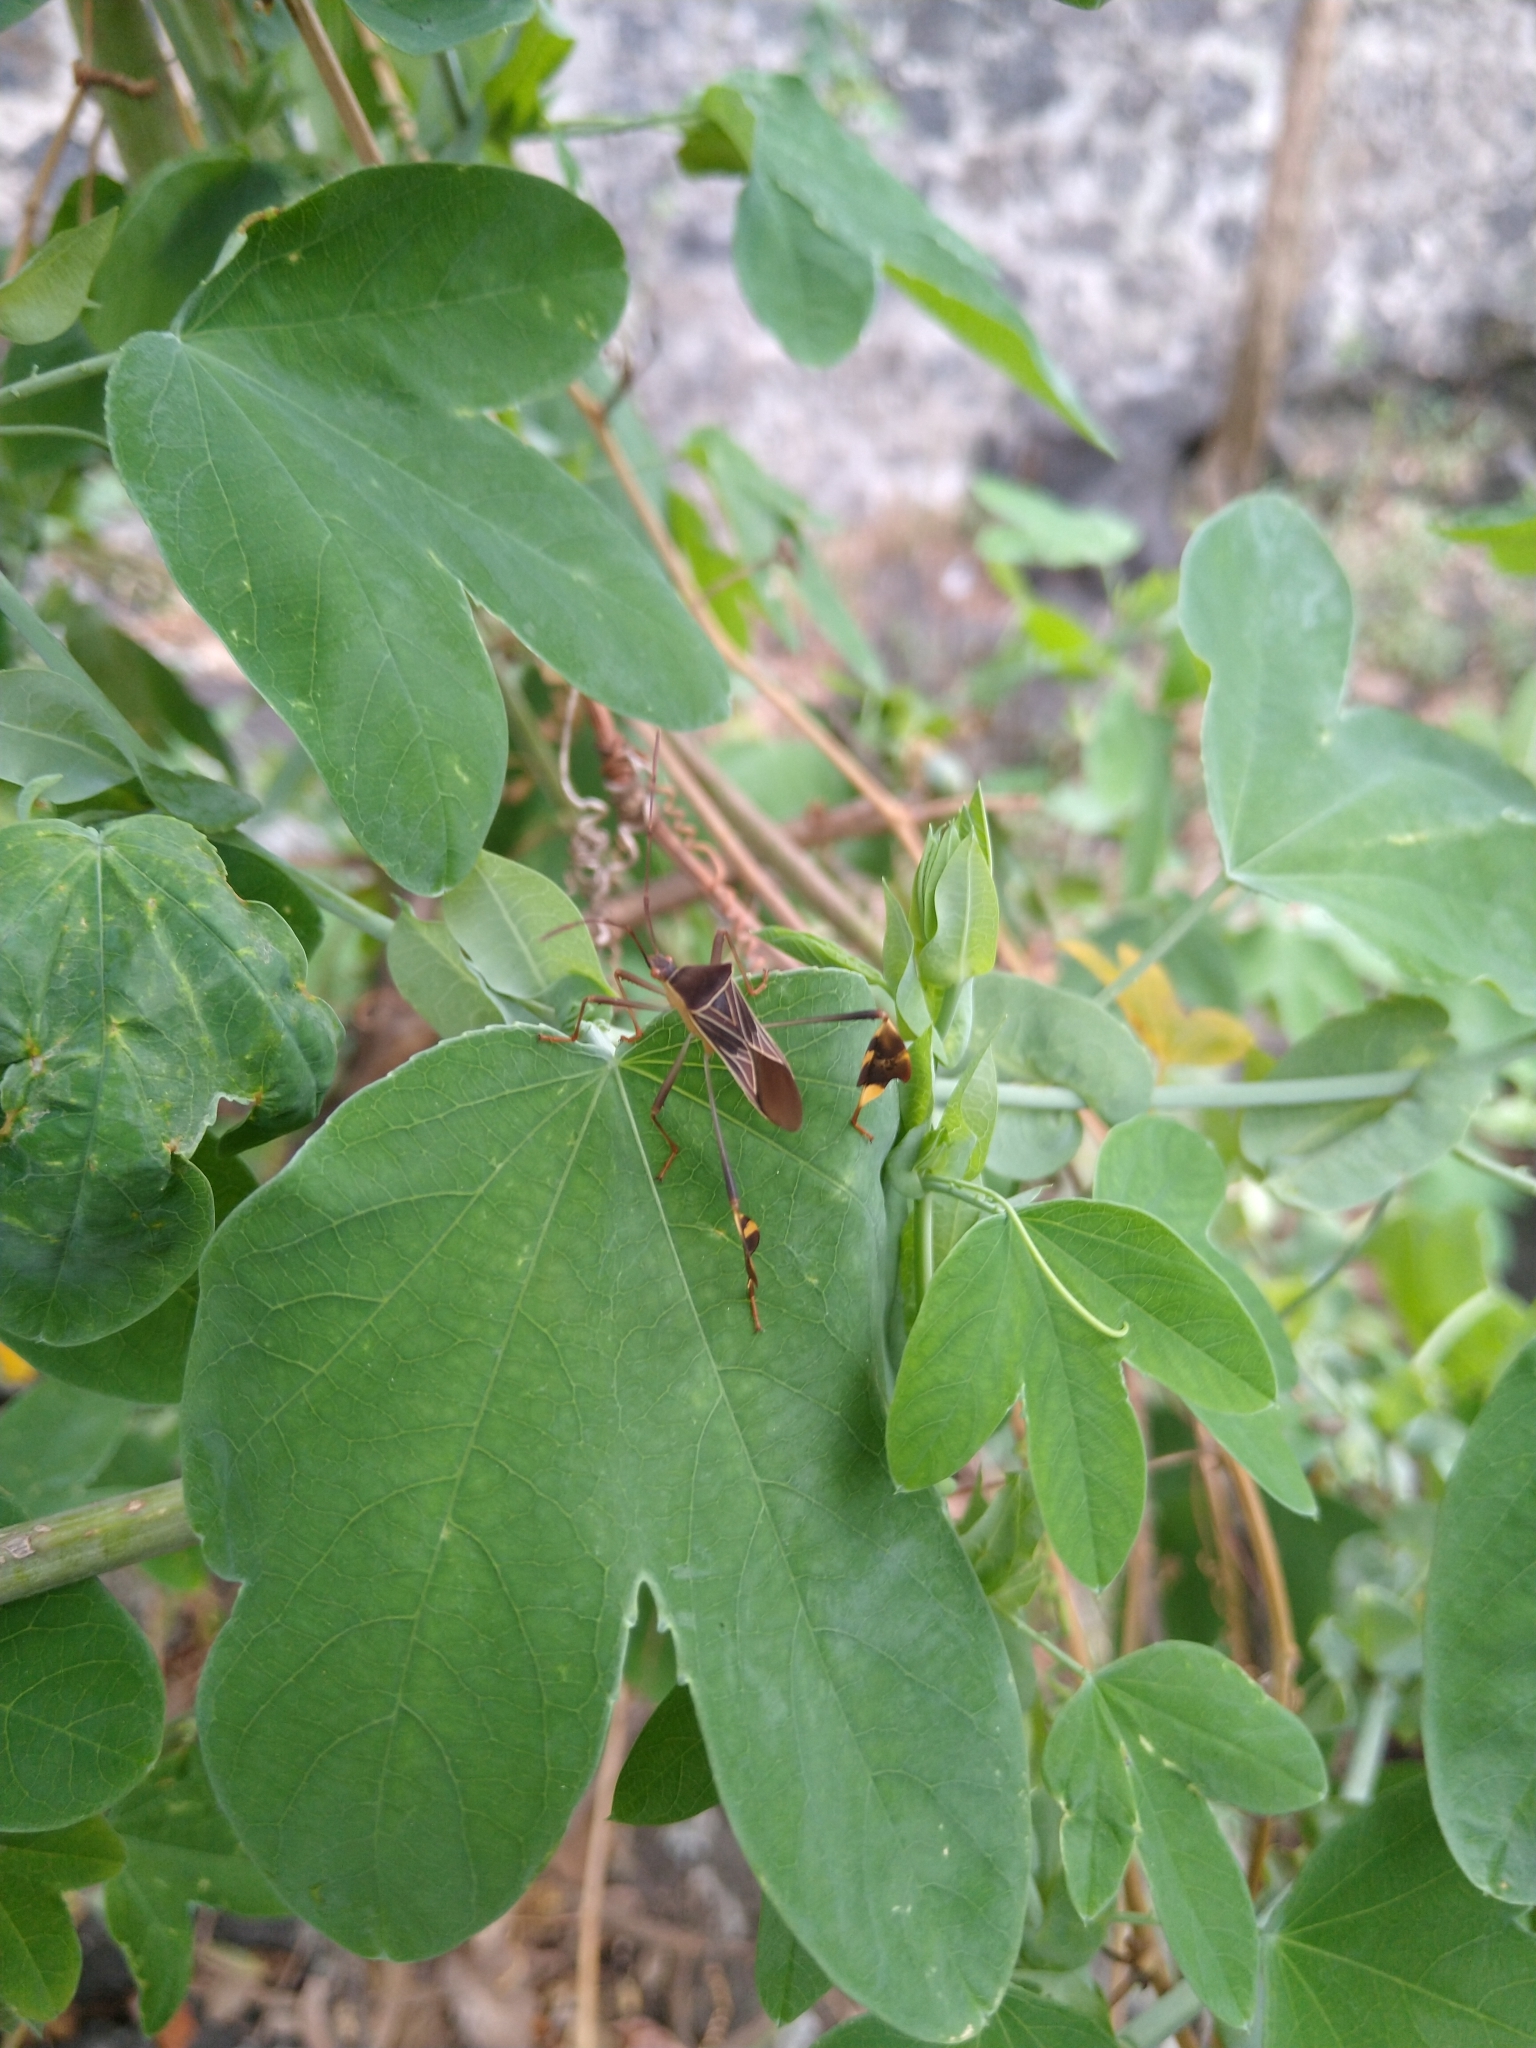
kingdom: Animalia
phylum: Arthropoda
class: Insecta
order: Hemiptera
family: Coreidae
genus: Bitta
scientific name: Bitta
